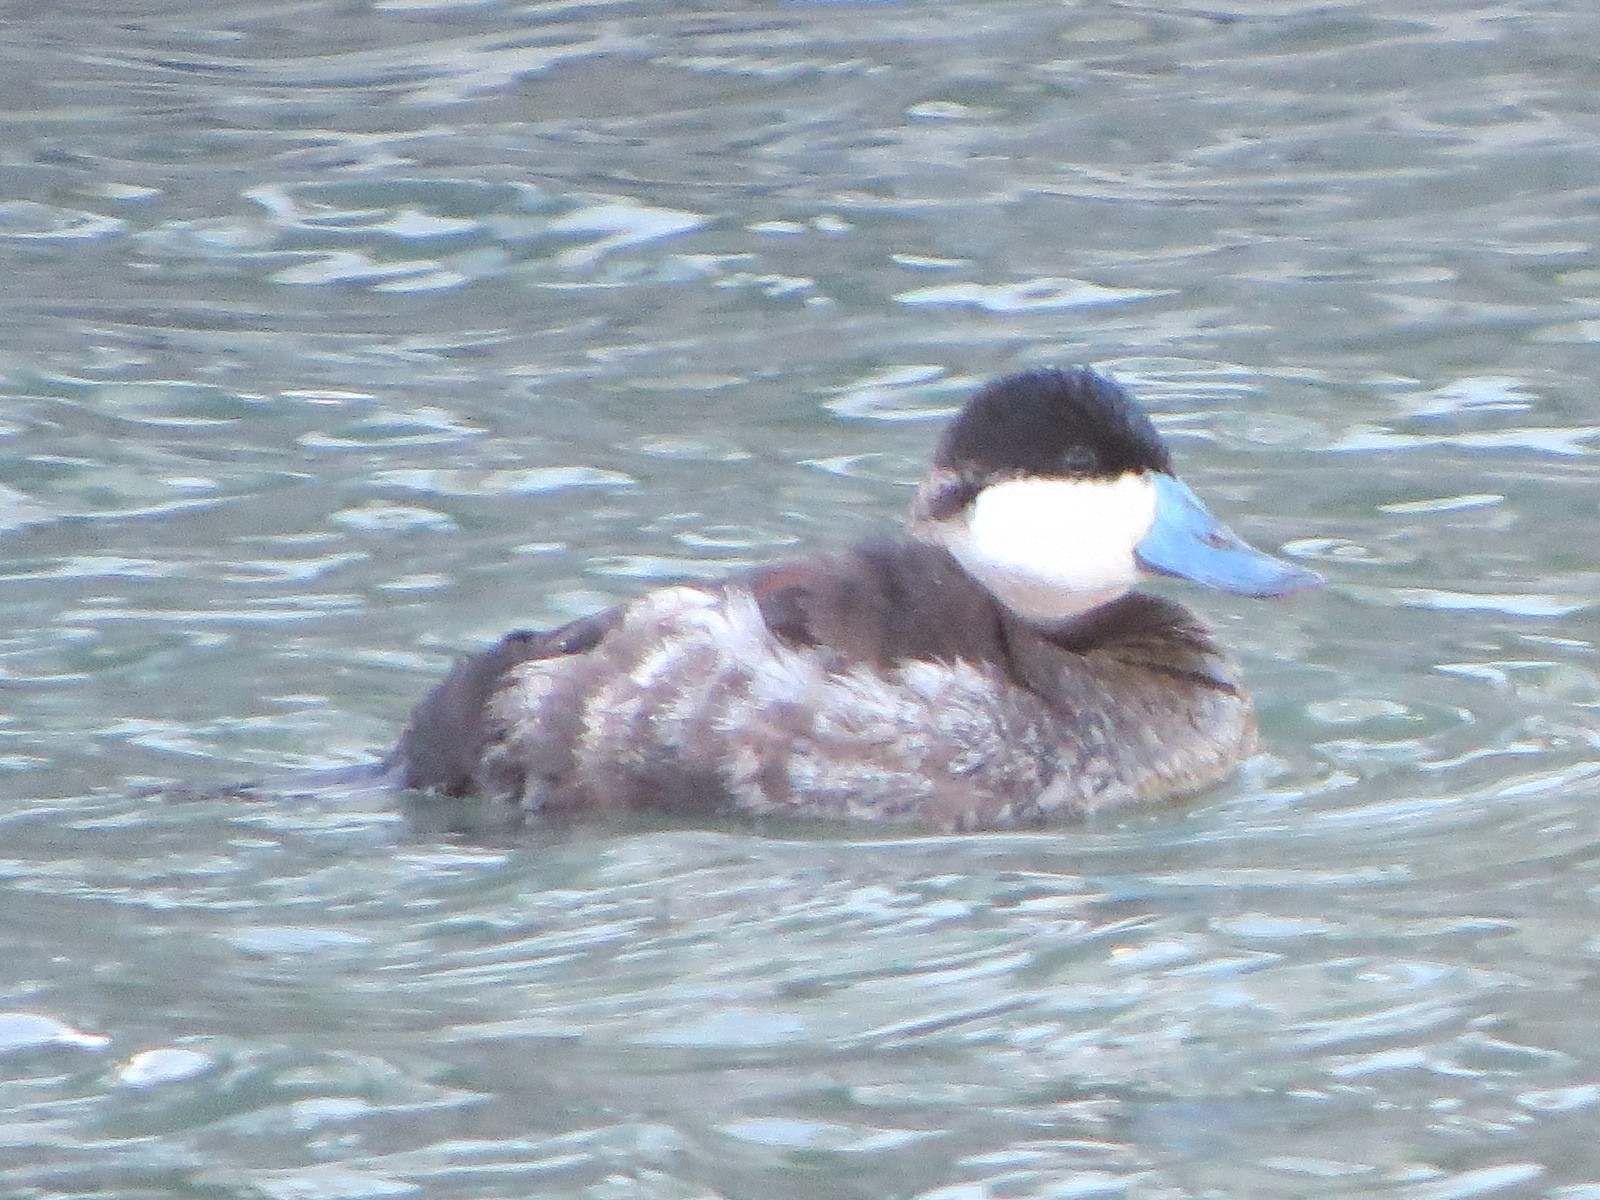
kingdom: Animalia
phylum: Chordata
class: Aves
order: Anseriformes
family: Anatidae
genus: Oxyura
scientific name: Oxyura jamaicensis
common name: Ruddy duck
